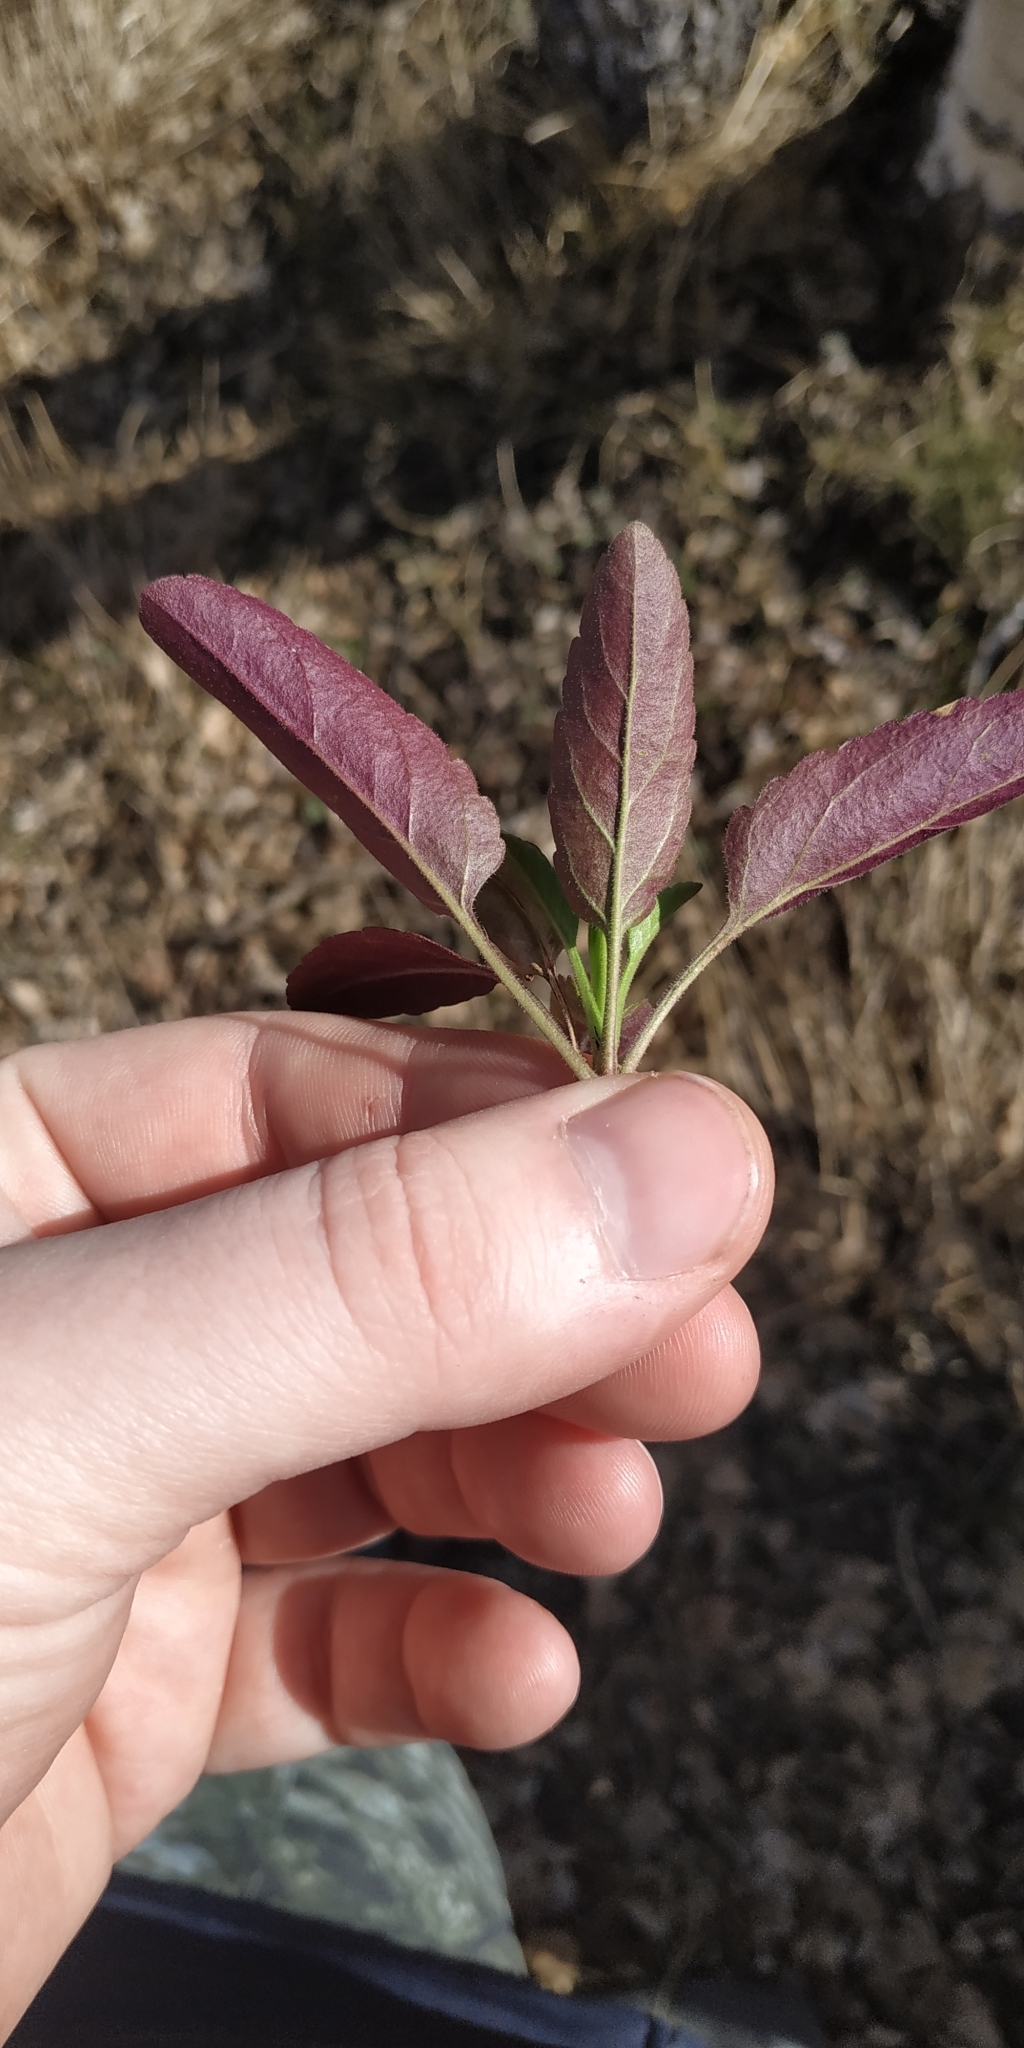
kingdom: Plantae
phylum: Tracheophyta
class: Magnoliopsida
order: Lamiales
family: Plantaginaceae
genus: Veronica
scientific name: Veronica spicata
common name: Spiked speedwell
